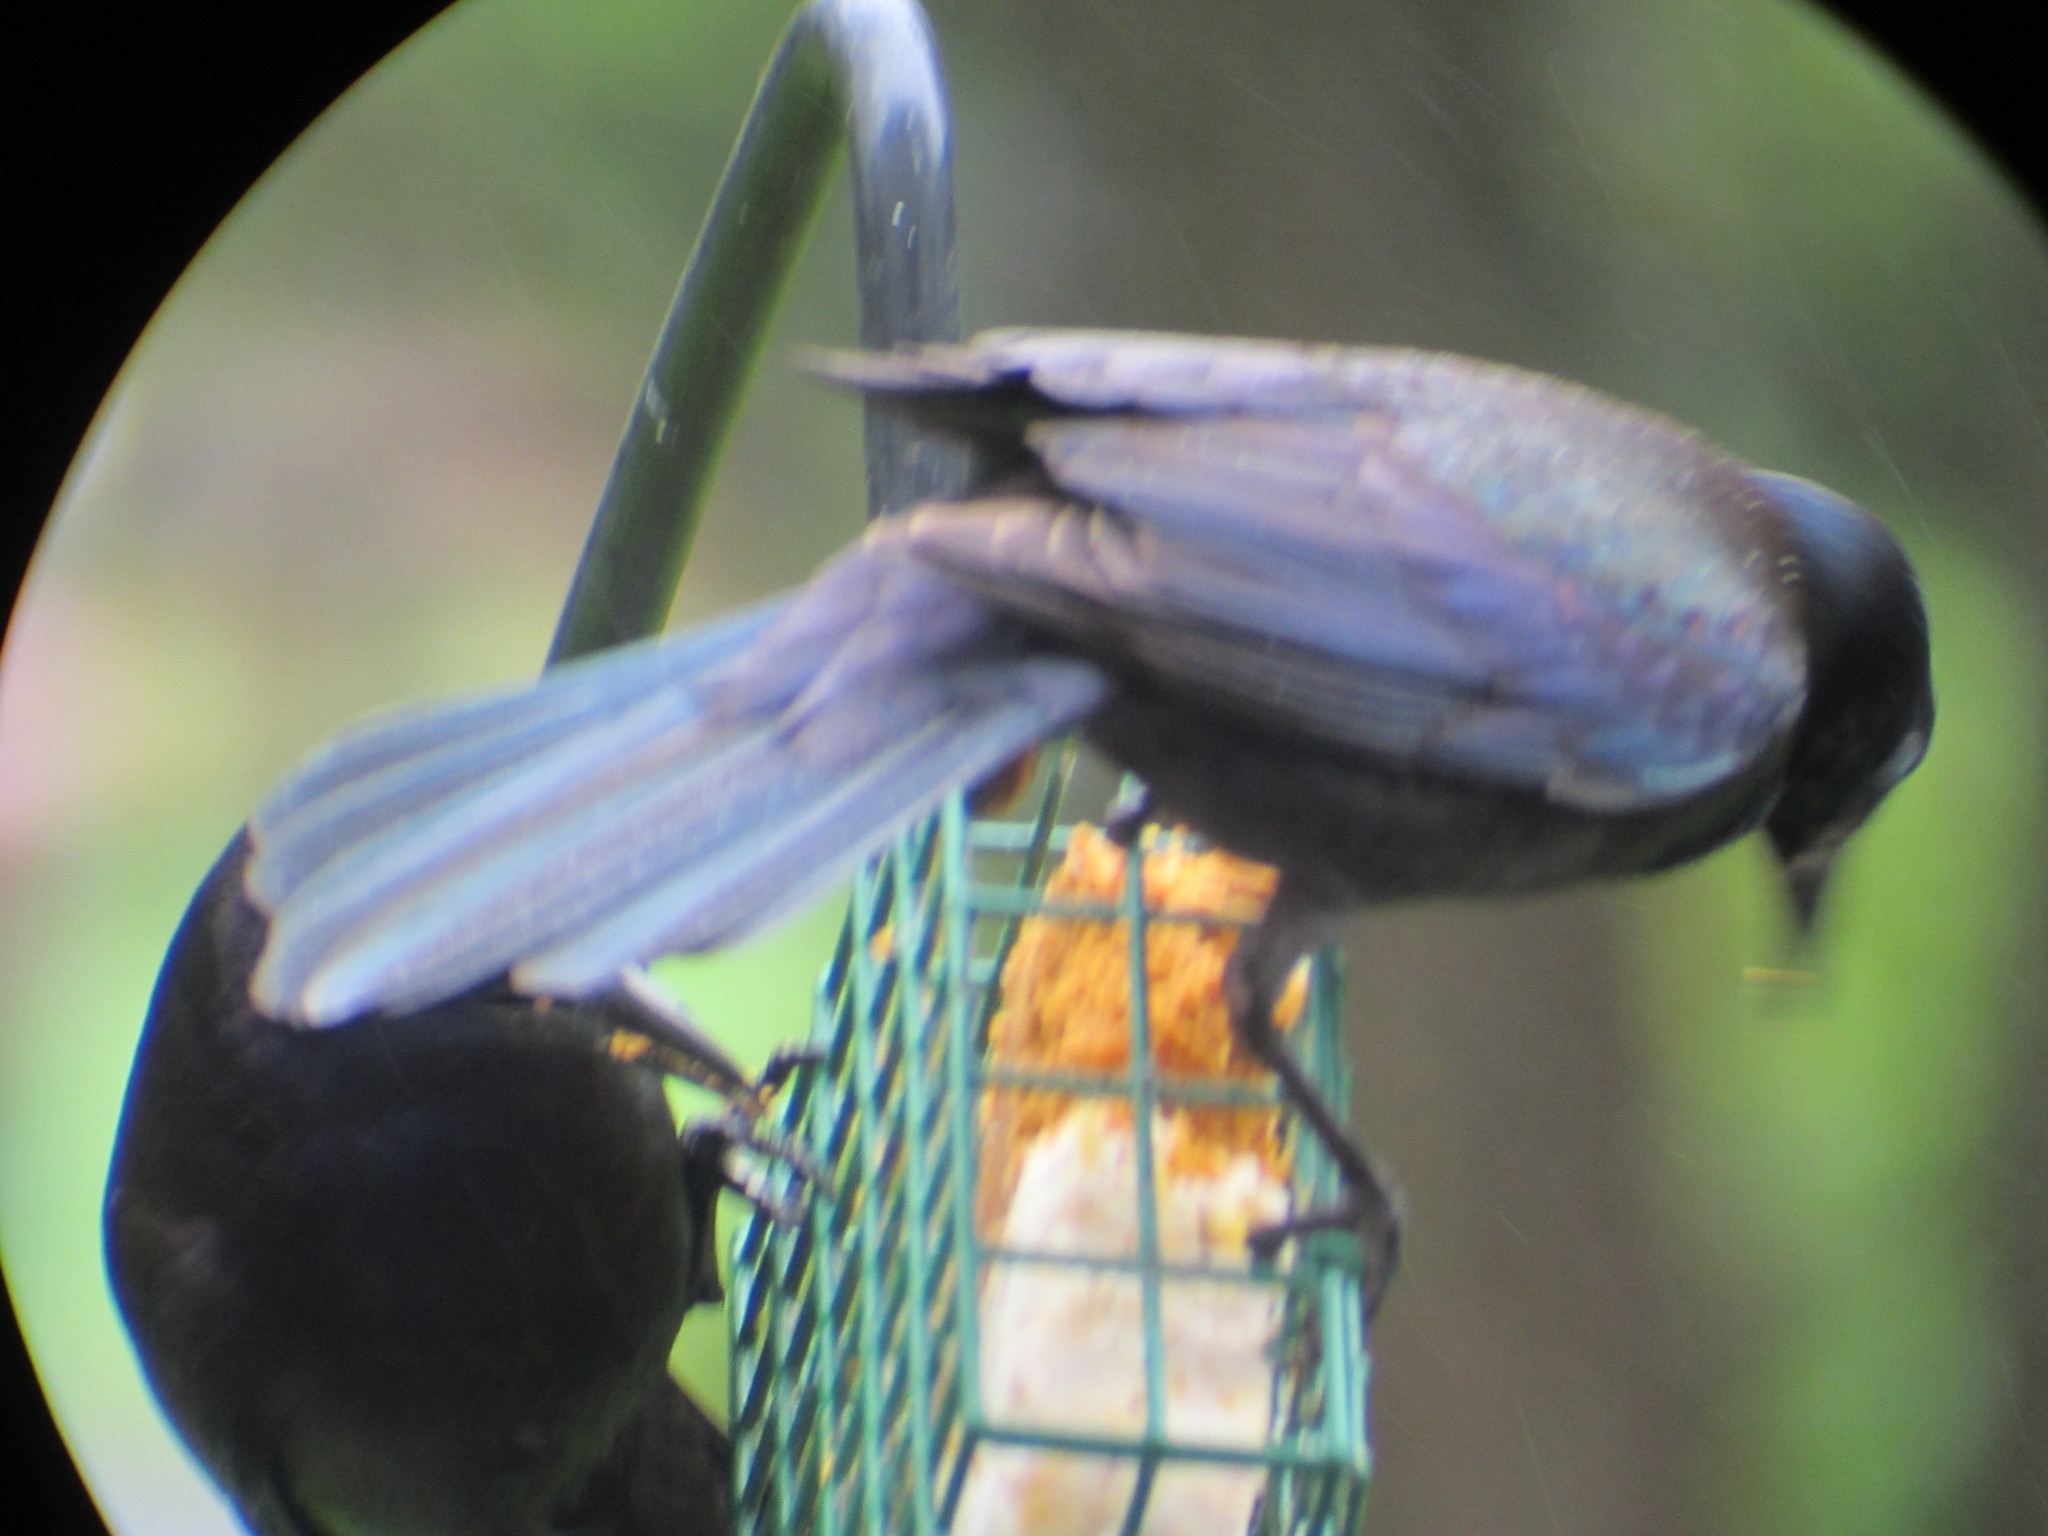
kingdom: Animalia
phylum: Chordata
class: Aves
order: Passeriformes
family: Icteridae
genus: Quiscalus
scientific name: Quiscalus quiscula
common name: Common grackle
